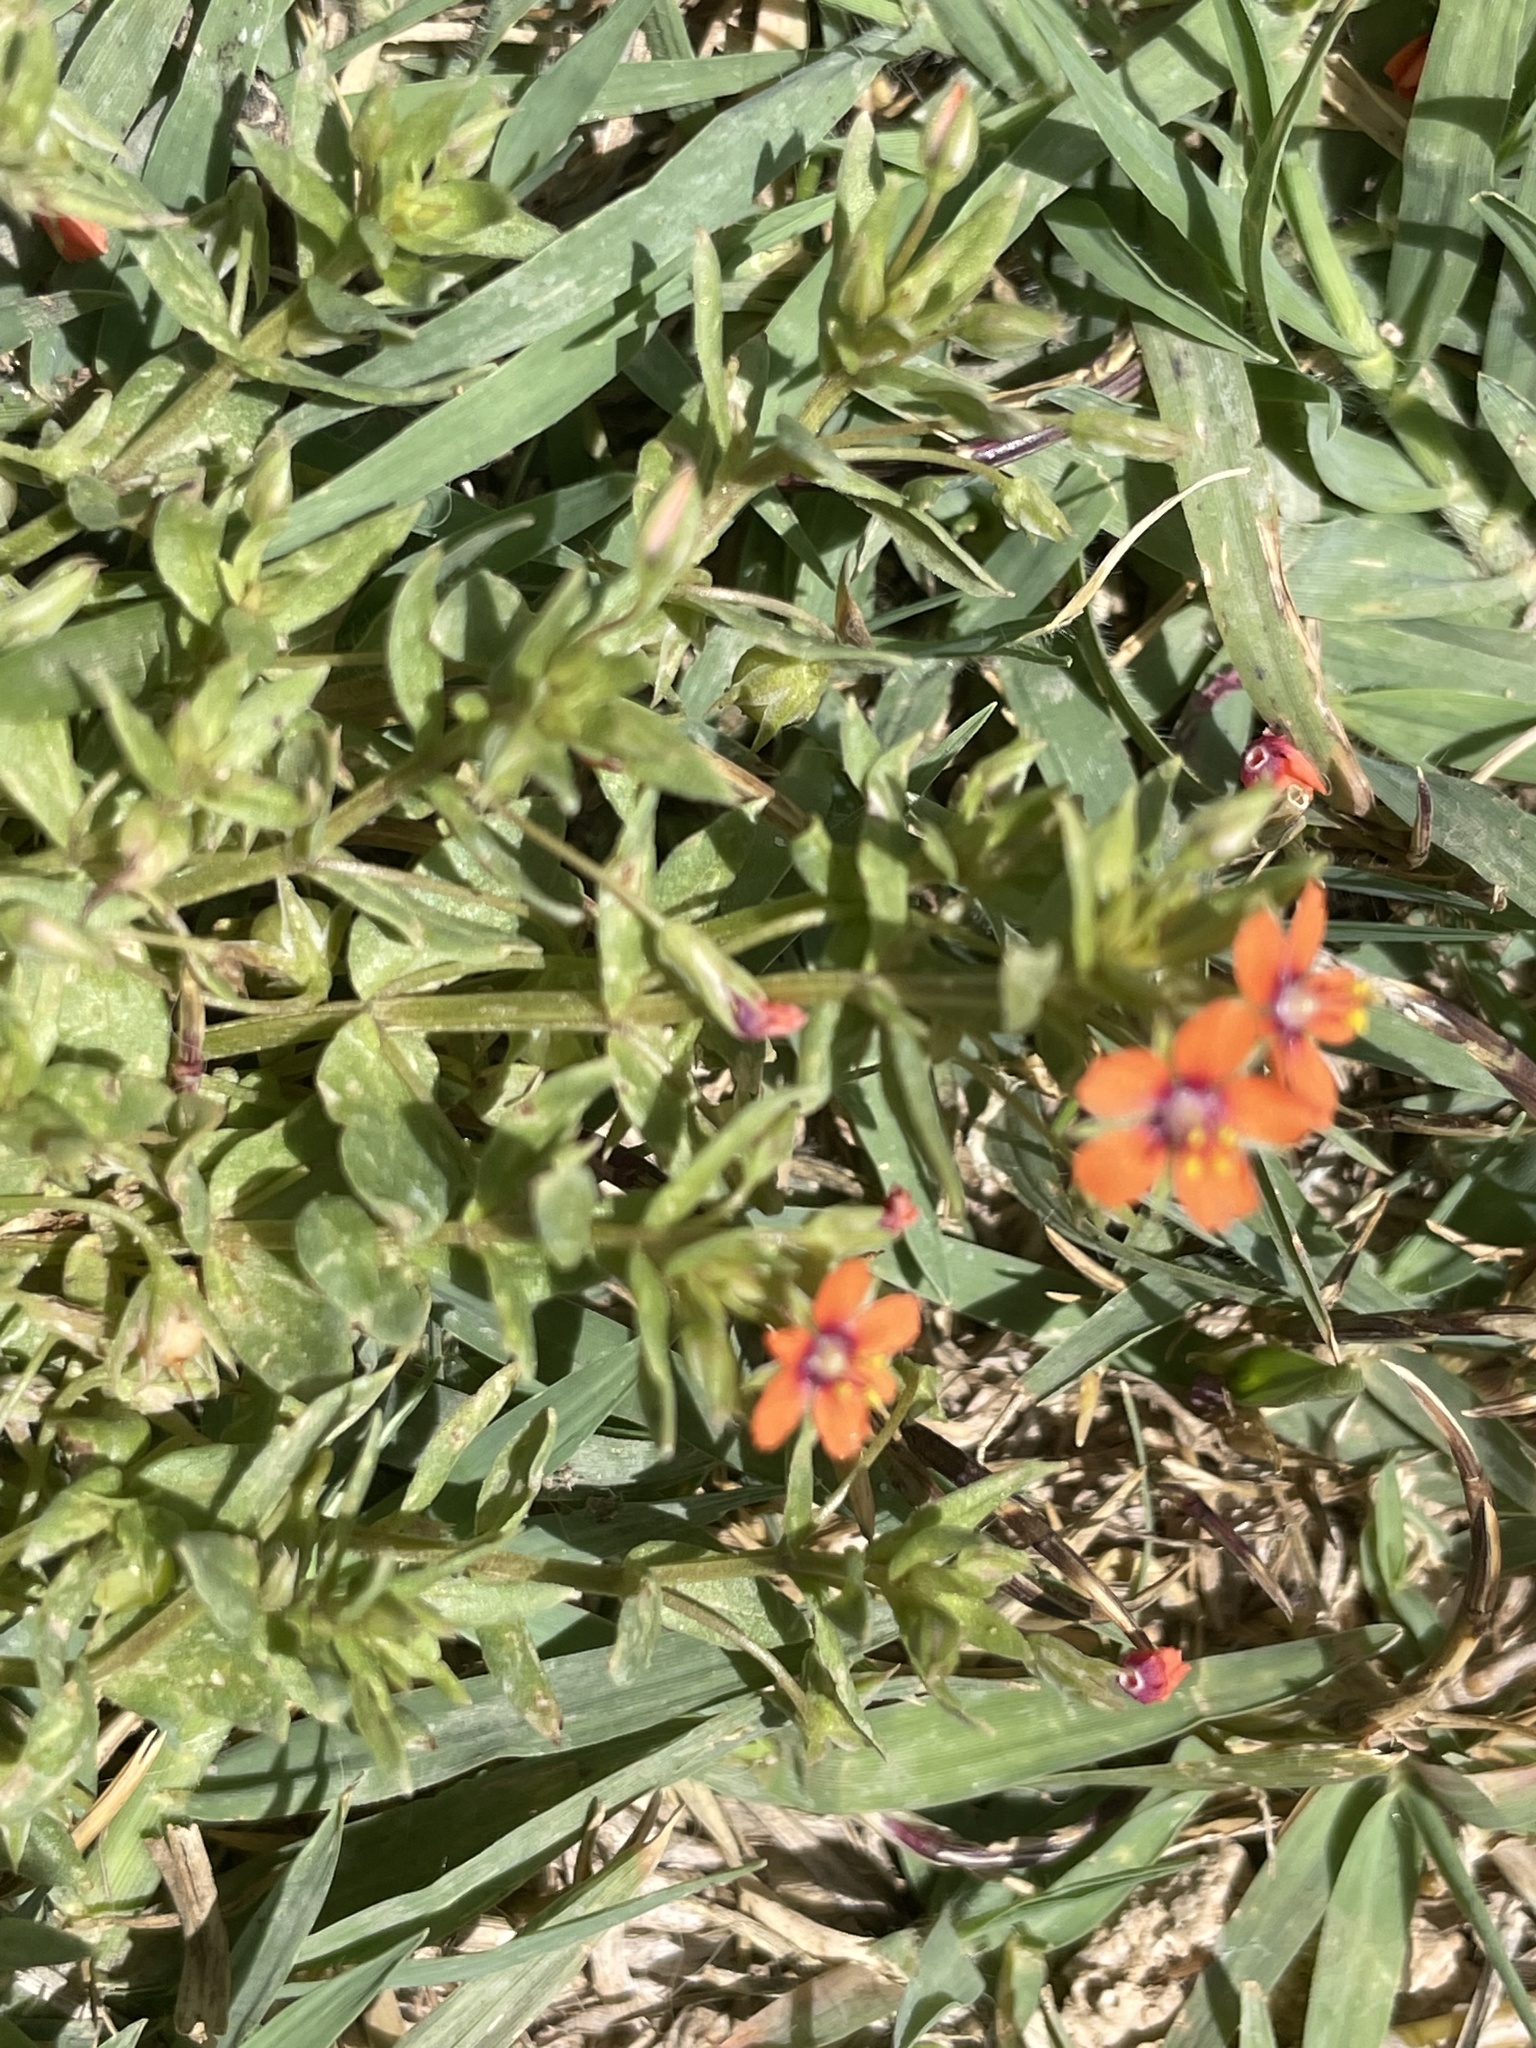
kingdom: Plantae
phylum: Tracheophyta
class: Magnoliopsida
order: Ericales
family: Primulaceae
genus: Lysimachia
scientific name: Lysimachia arvensis
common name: Scarlet pimpernel
